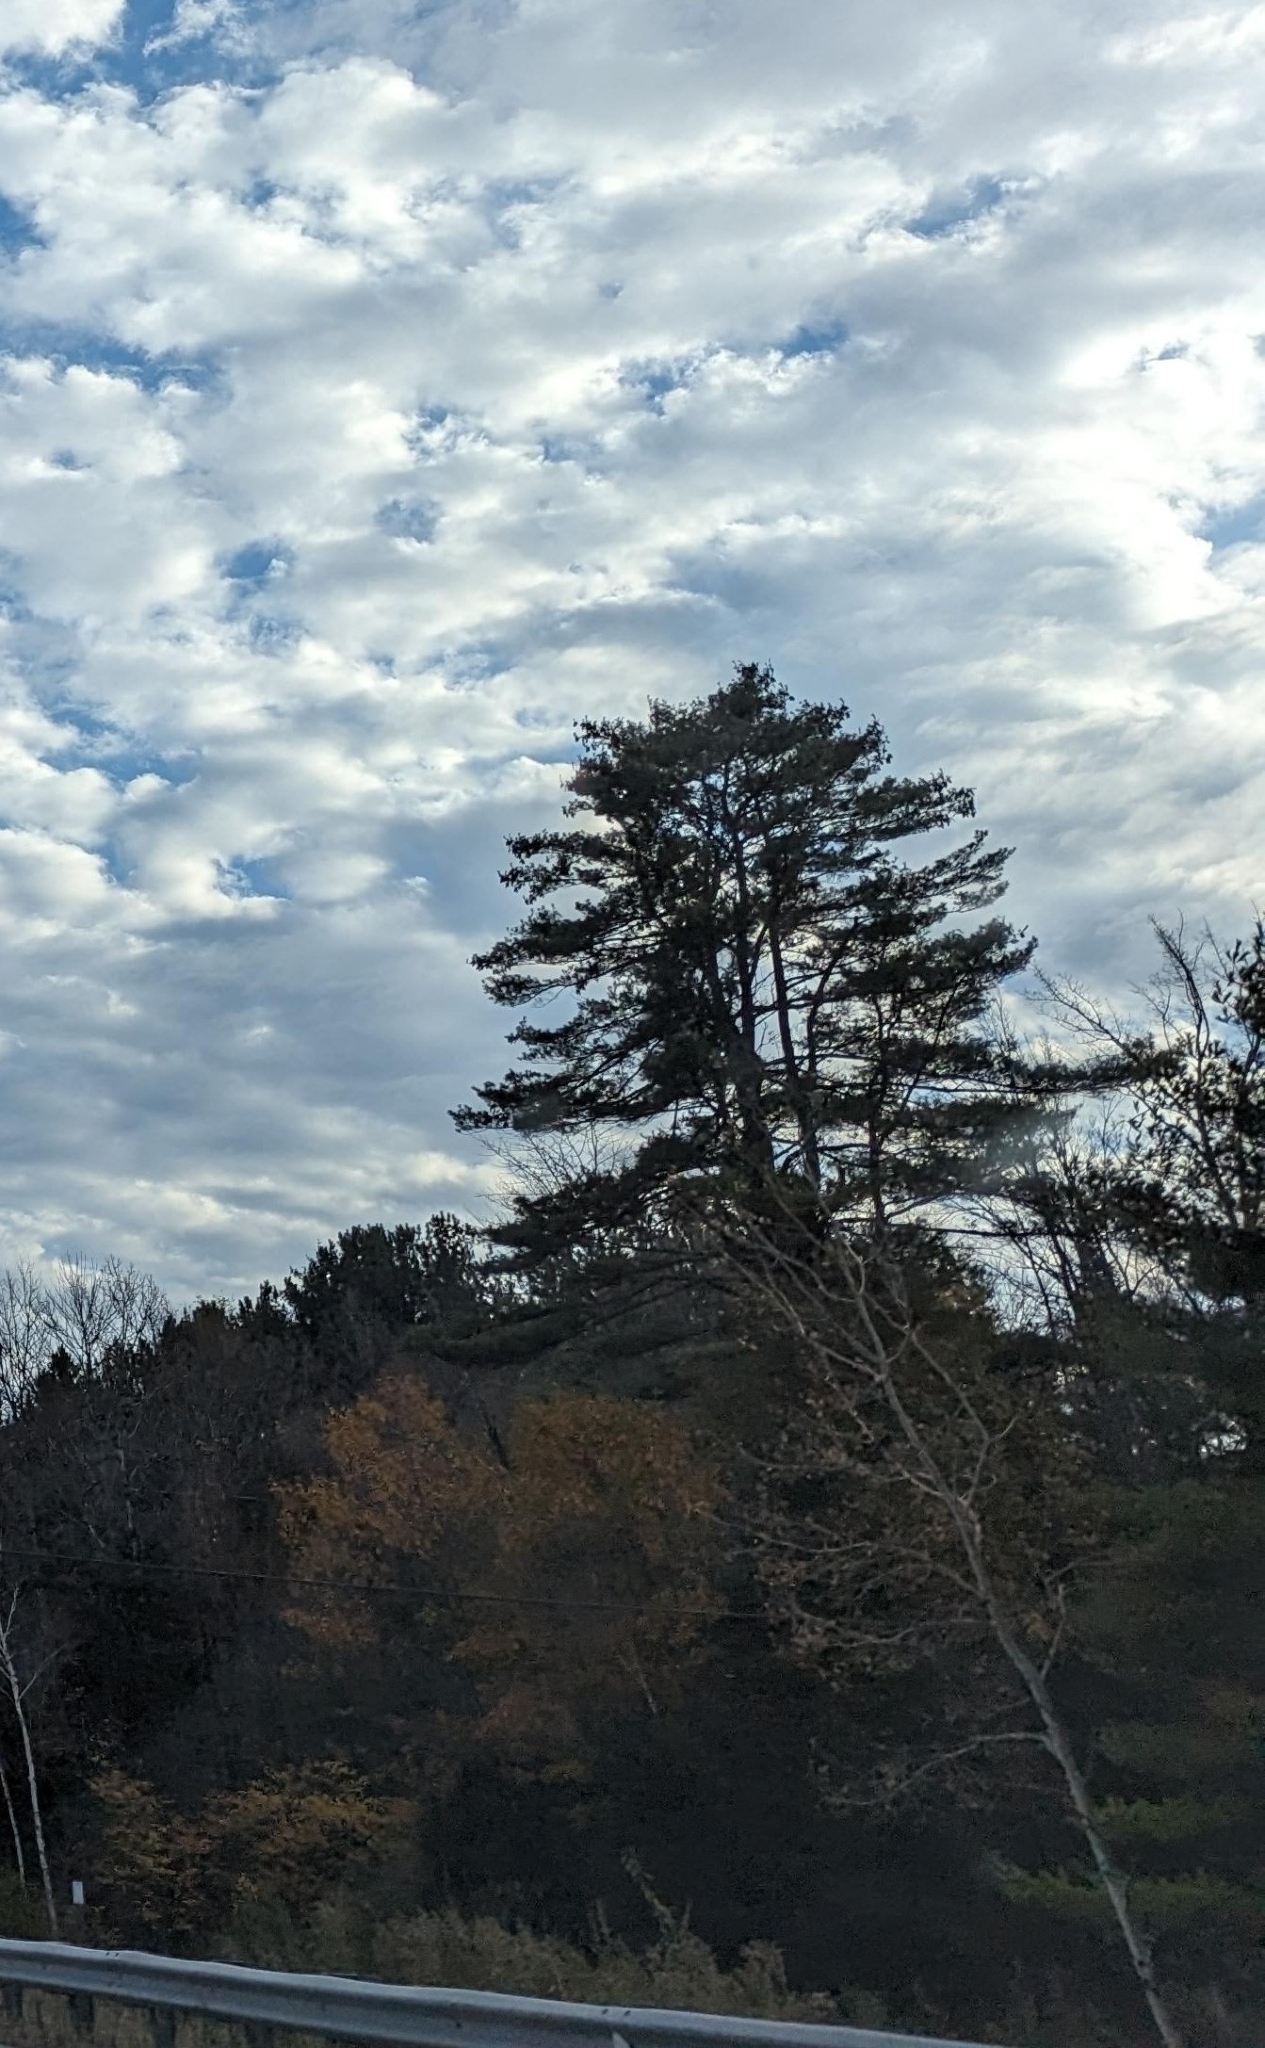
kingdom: Plantae
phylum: Tracheophyta
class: Pinopsida
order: Pinales
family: Pinaceae
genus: Pinus
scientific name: Pinus strobus
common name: Weymouth pine
